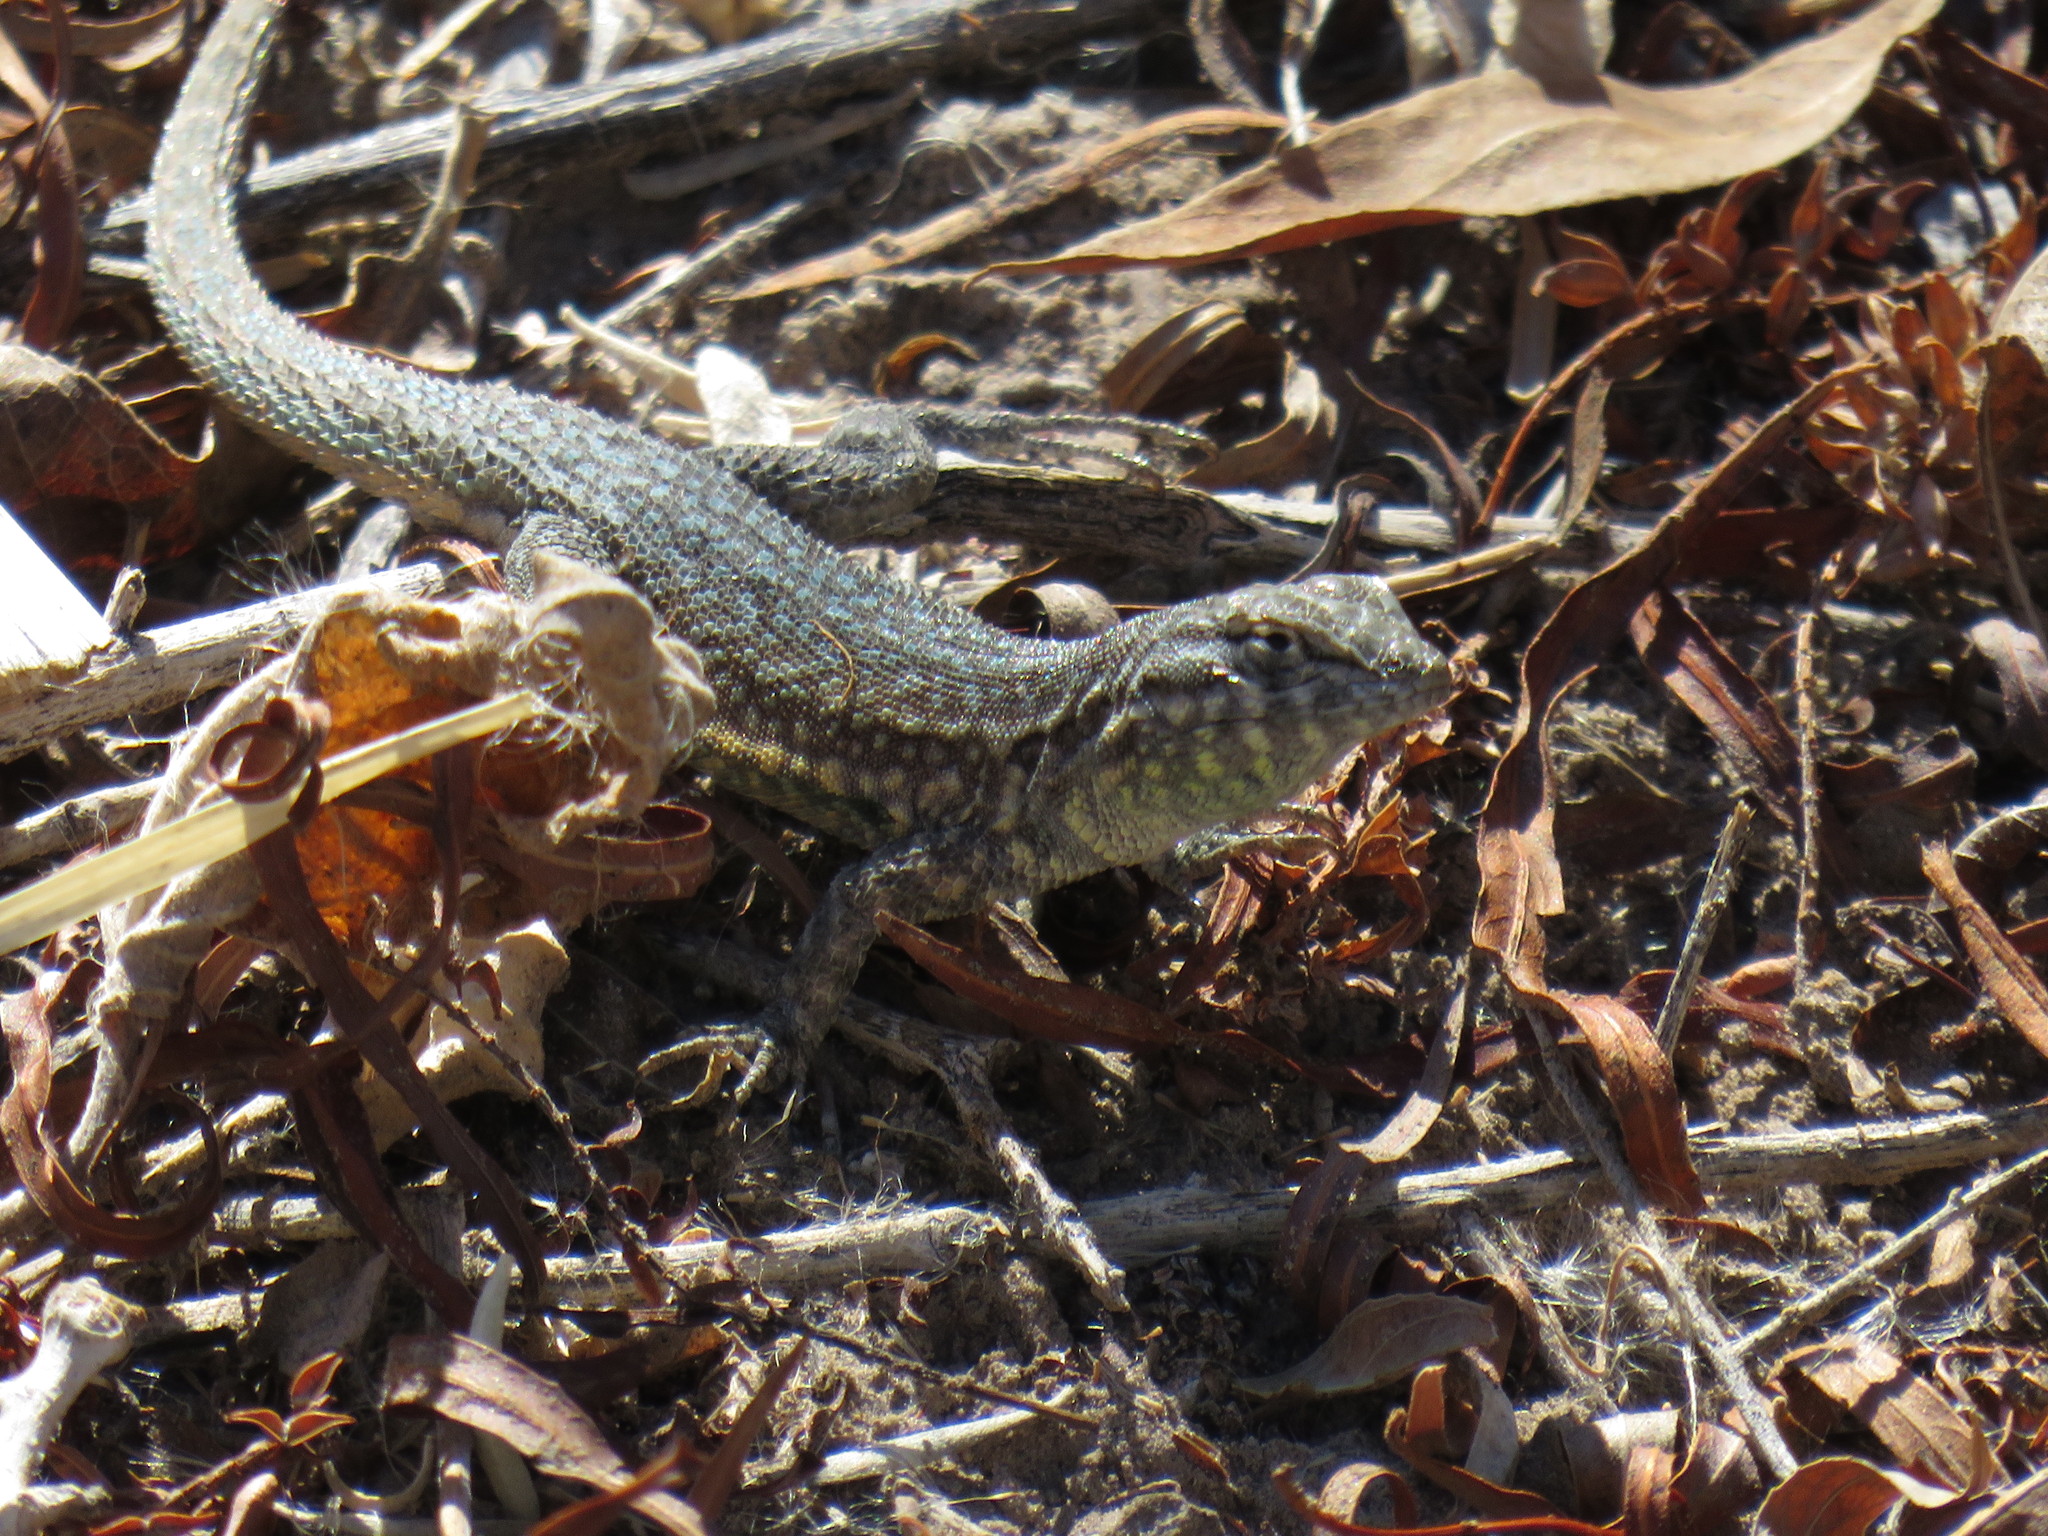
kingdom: Animalia
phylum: Chordata
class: Squamata
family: Phrynosomatidae
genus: Uta
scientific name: Uta stansburiana
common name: Side-blotched lizard
